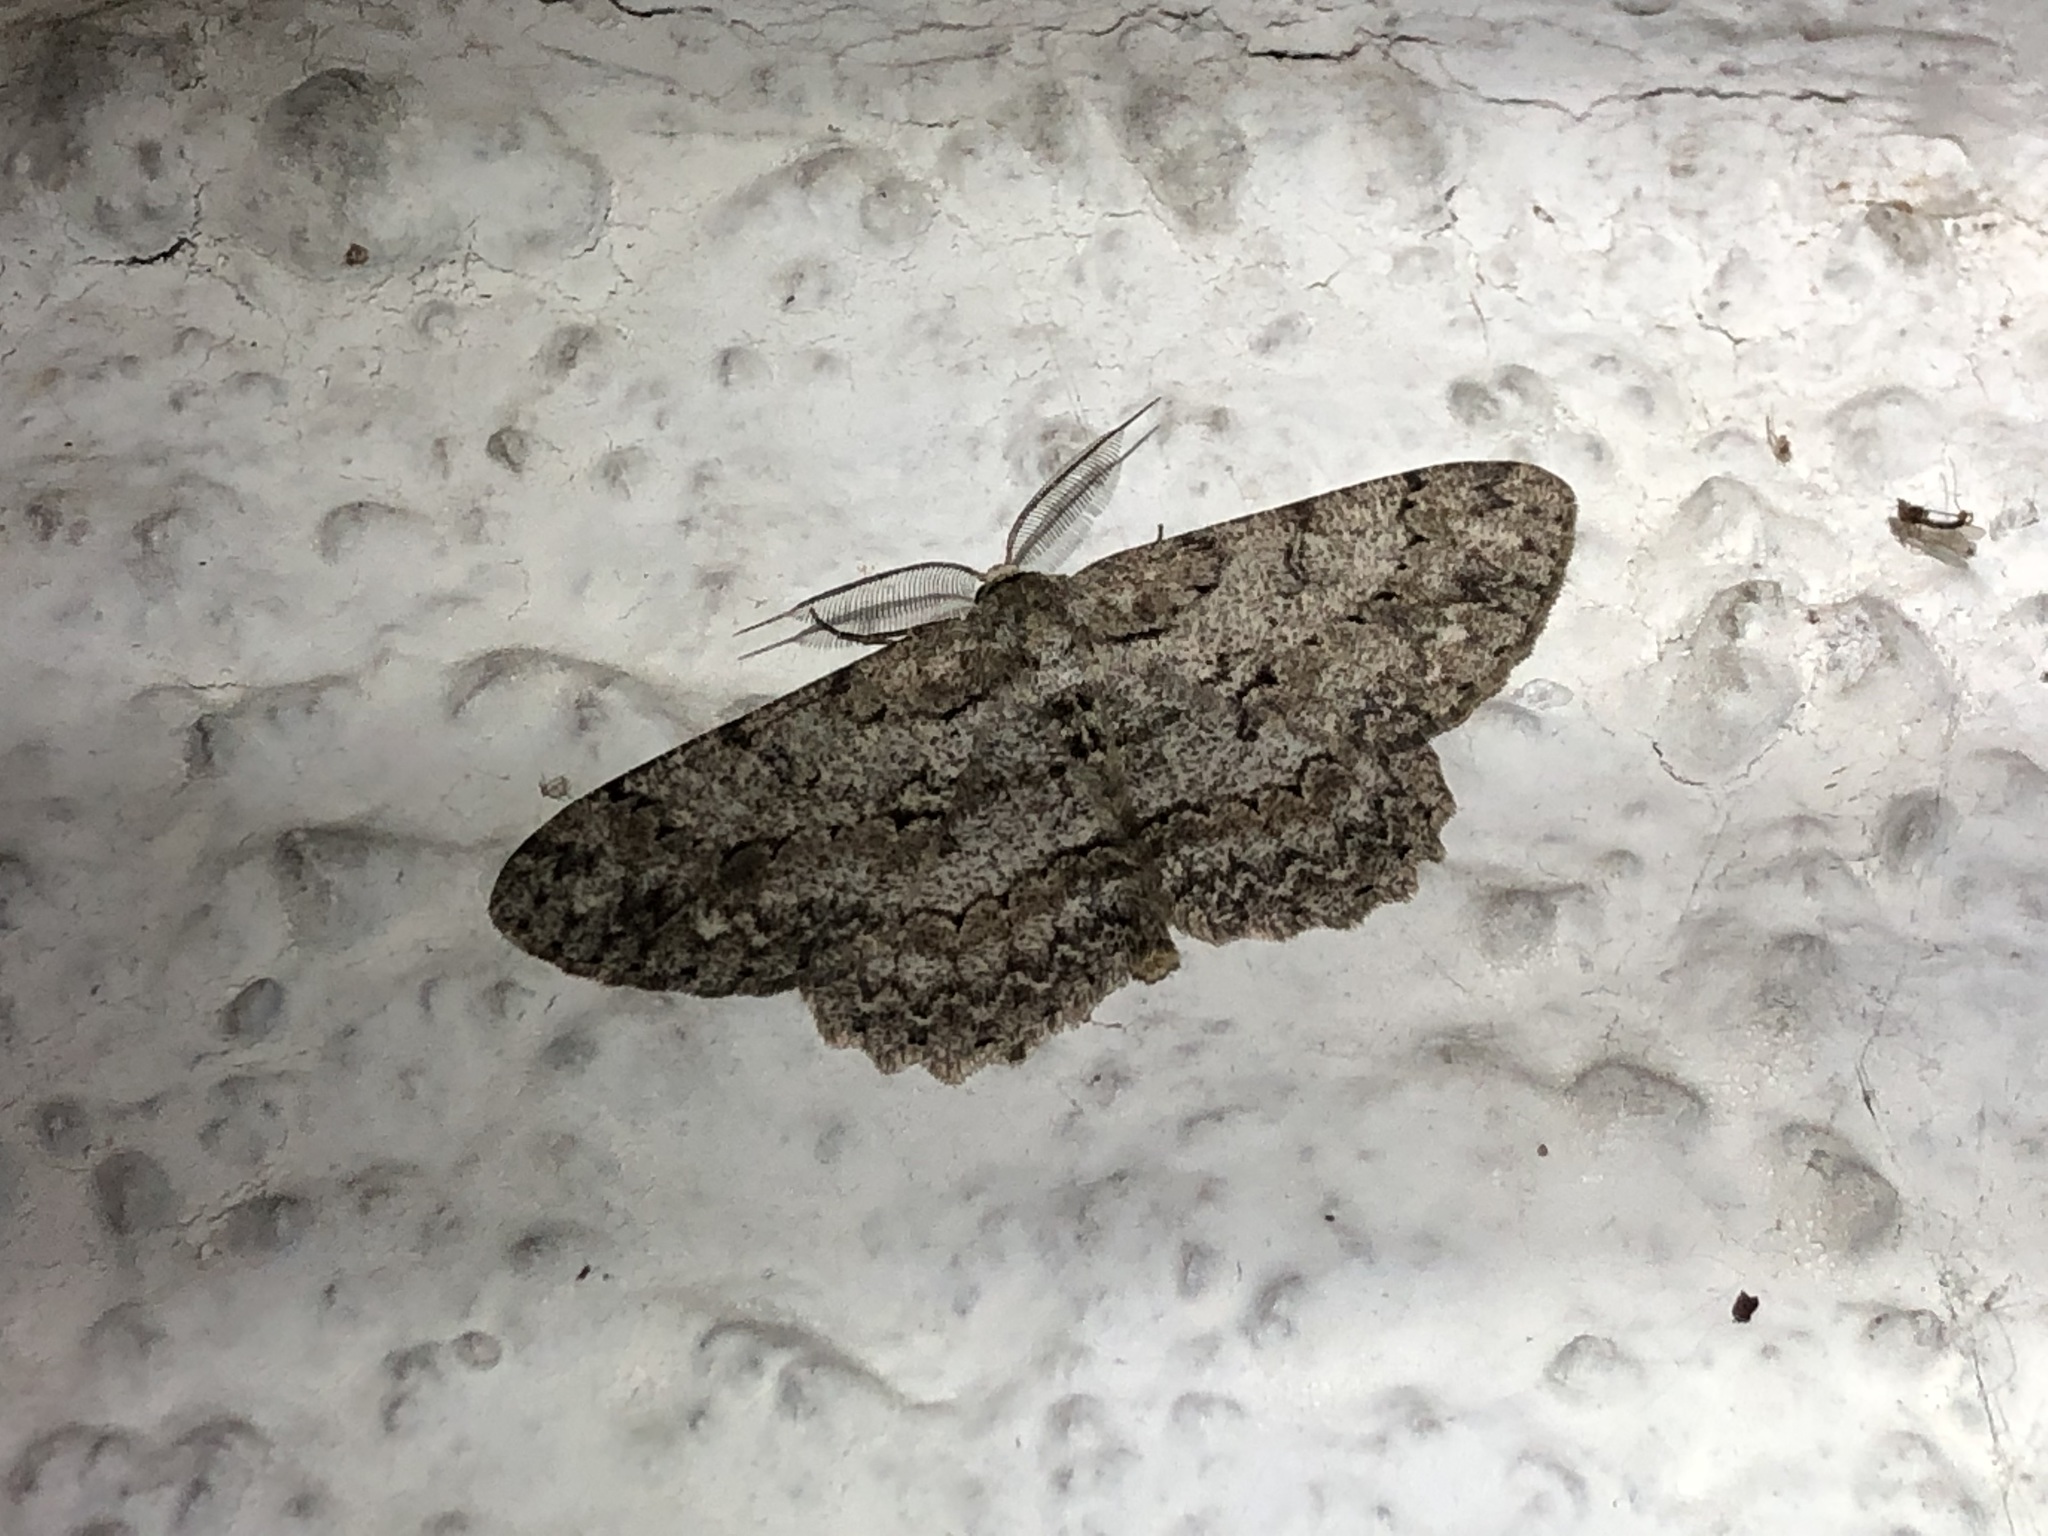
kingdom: Animalia
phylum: Arthropoda
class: Insecta
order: Lepidoptera
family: Geometridae
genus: Hypomecis
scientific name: Hypomecis punctinalis
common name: Pale oak beauty
